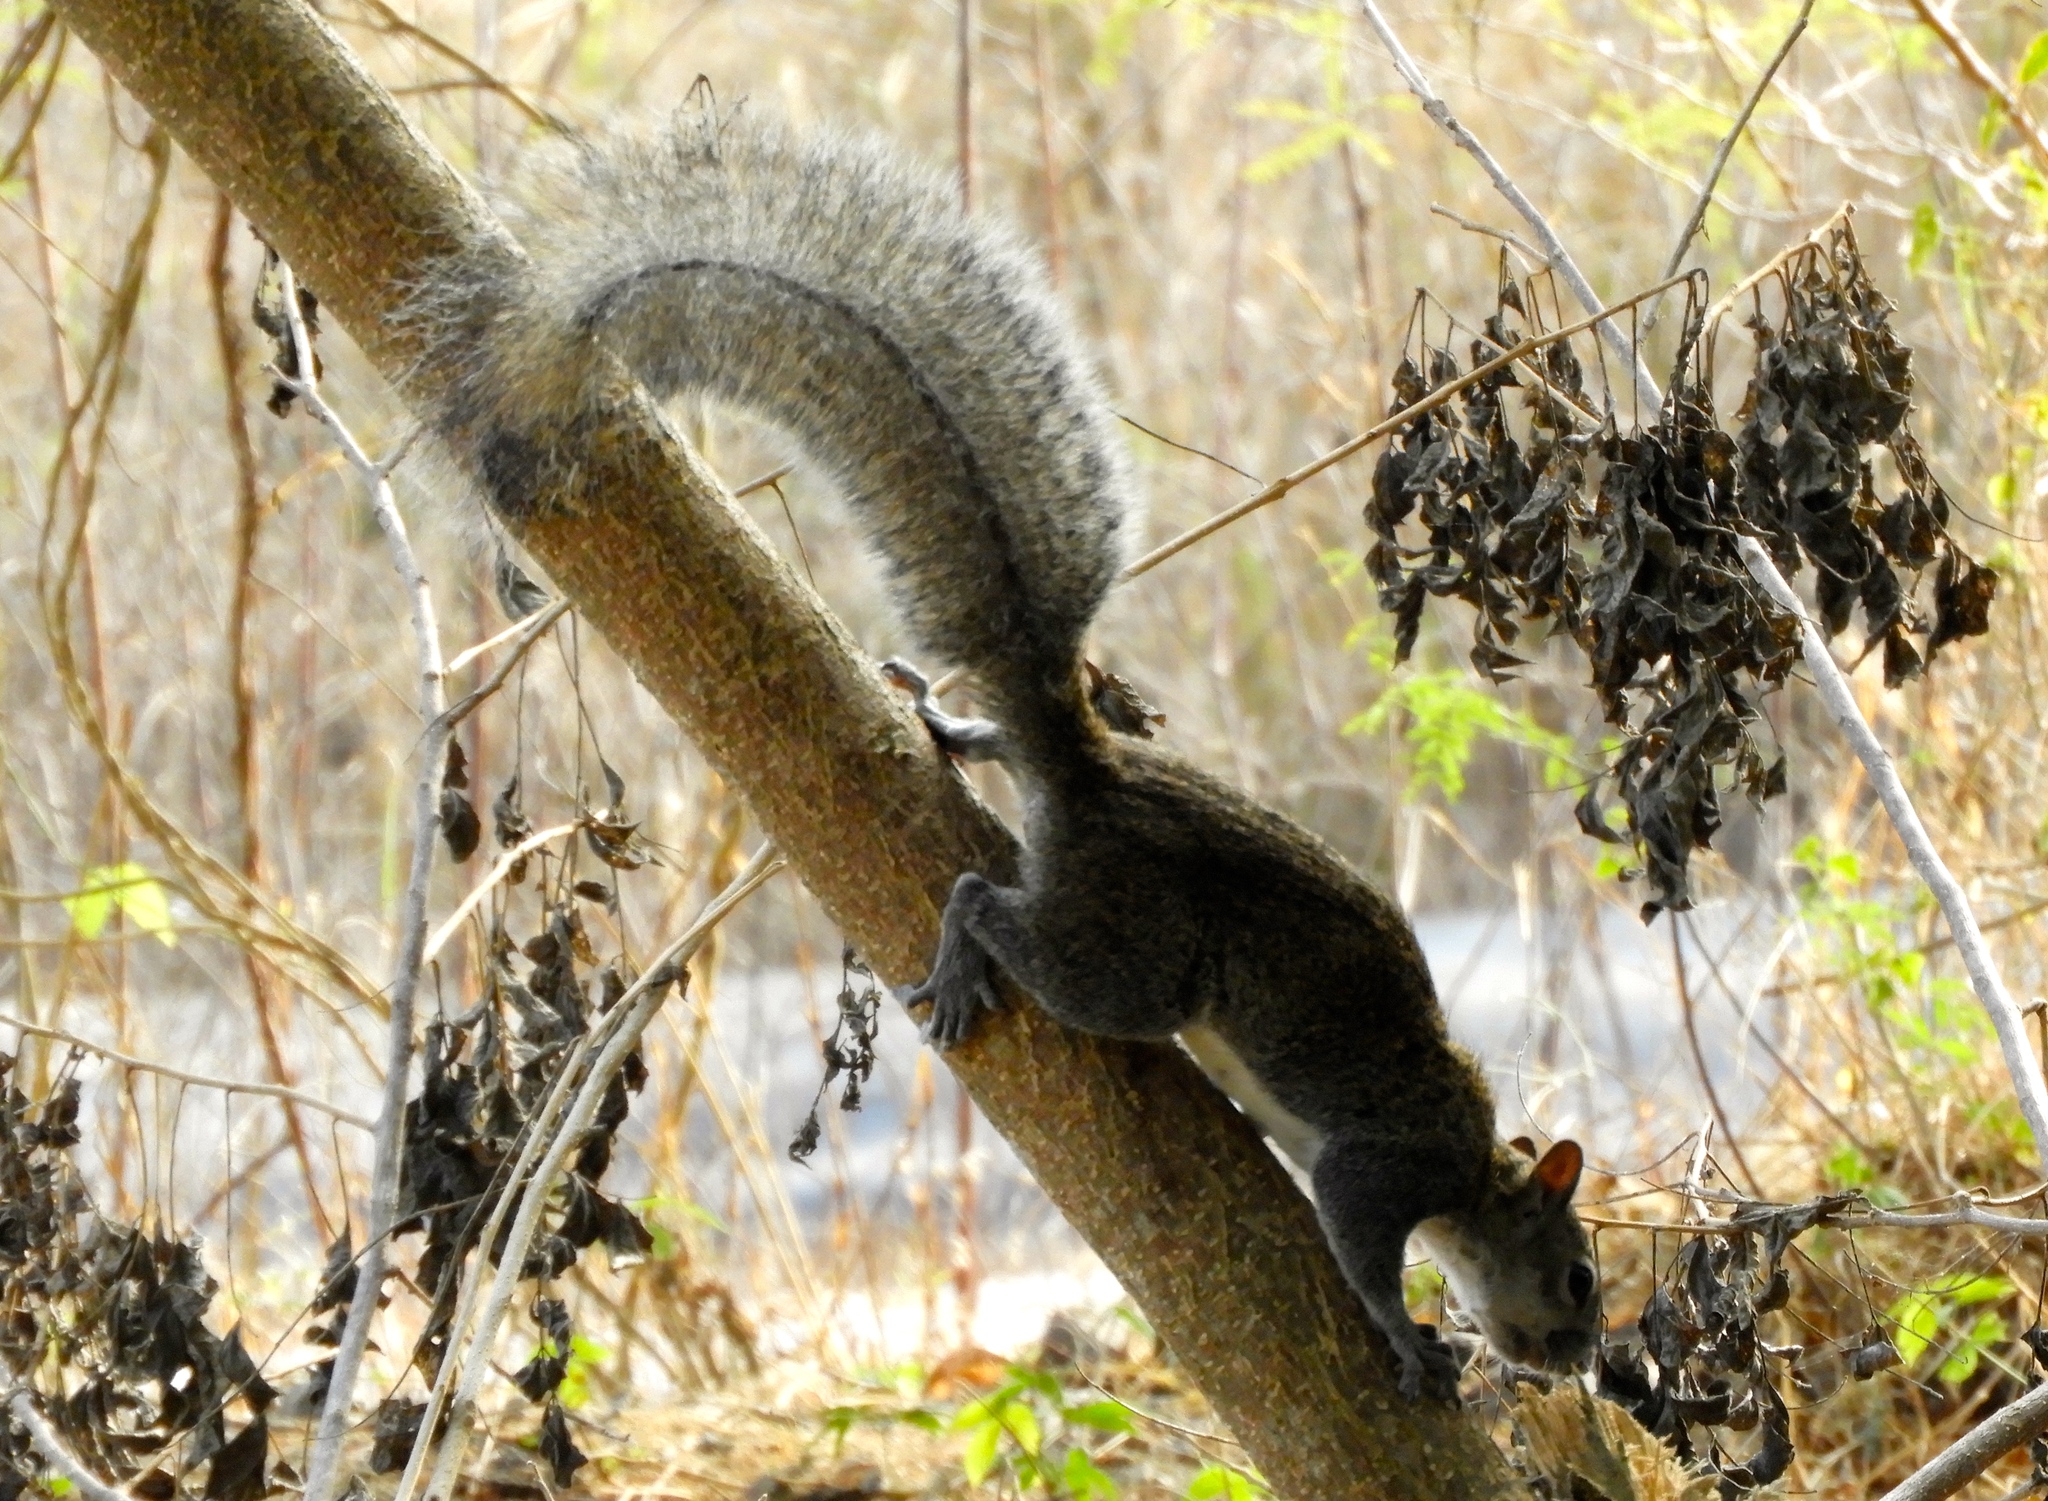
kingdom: Animalia
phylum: Chordata
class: Mammalia
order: Rodentia
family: Sciuridae
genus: Sciurus
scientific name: Sciurus colliaei
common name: Collie's squirrel
